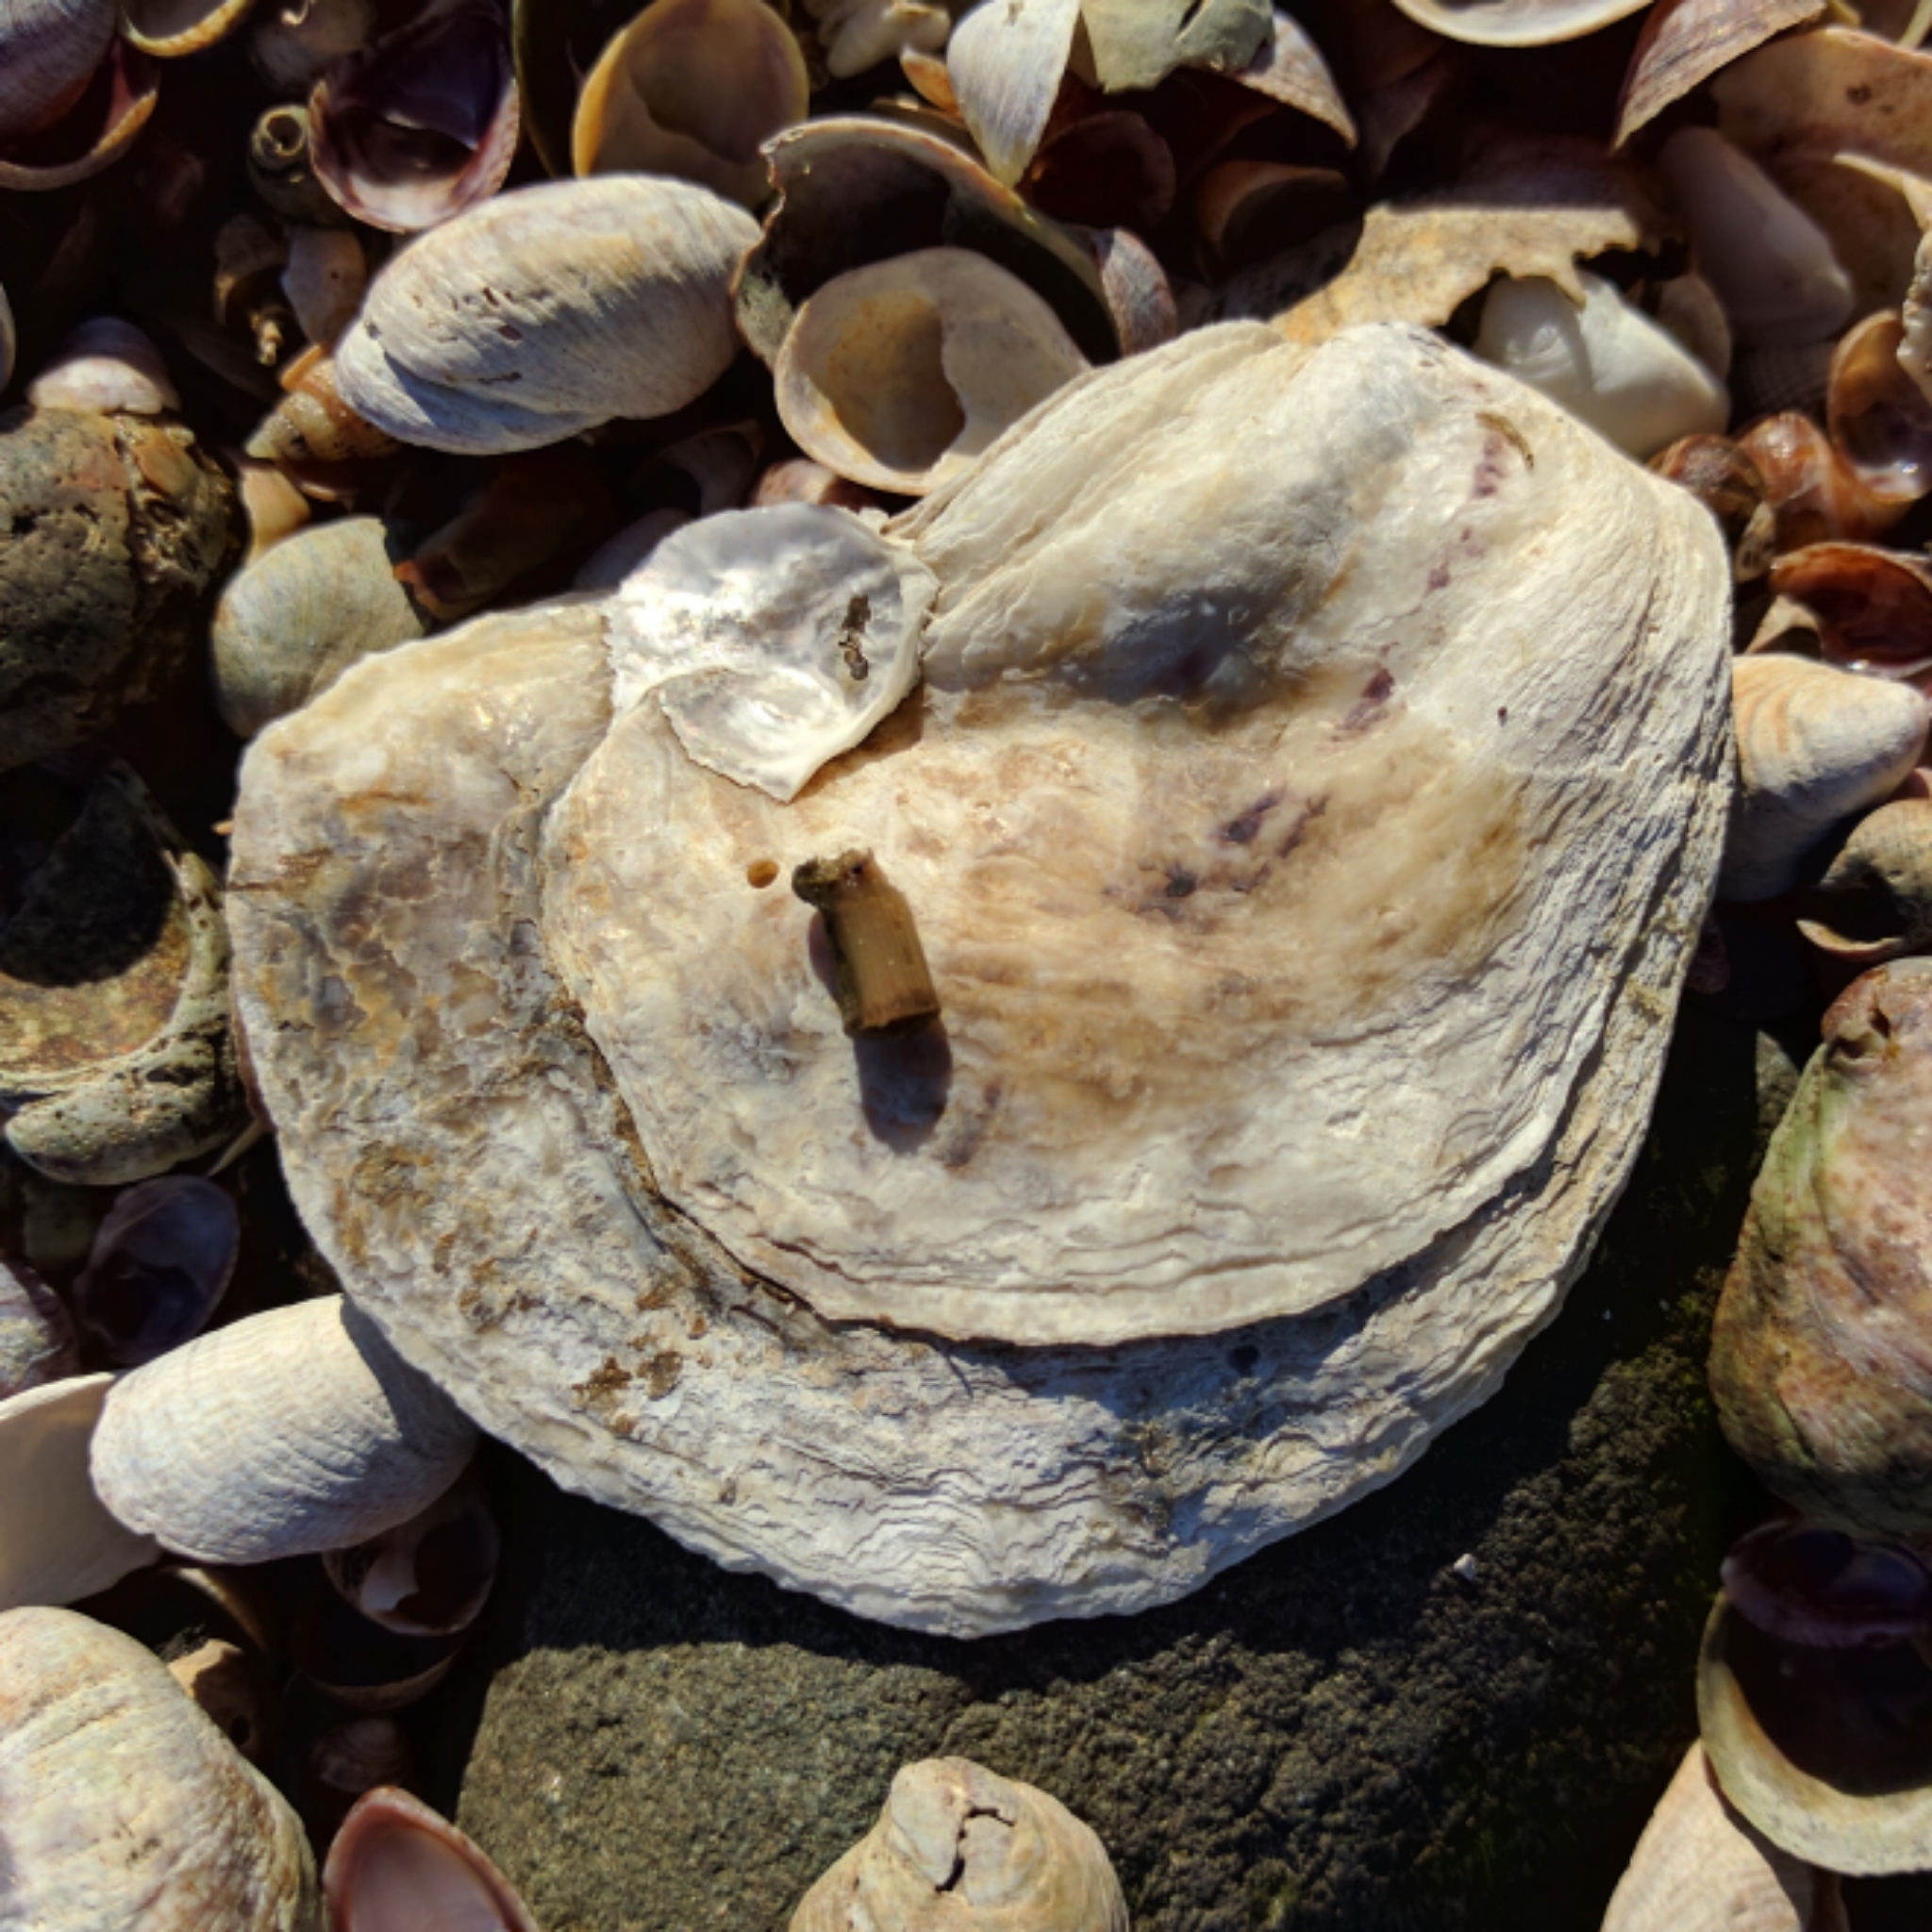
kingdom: Animalia
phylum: Mollusca
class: Bivalvia
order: Ostreida
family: Ostreidae
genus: Crassostrea
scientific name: Crassostrea virginica
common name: American oyster
